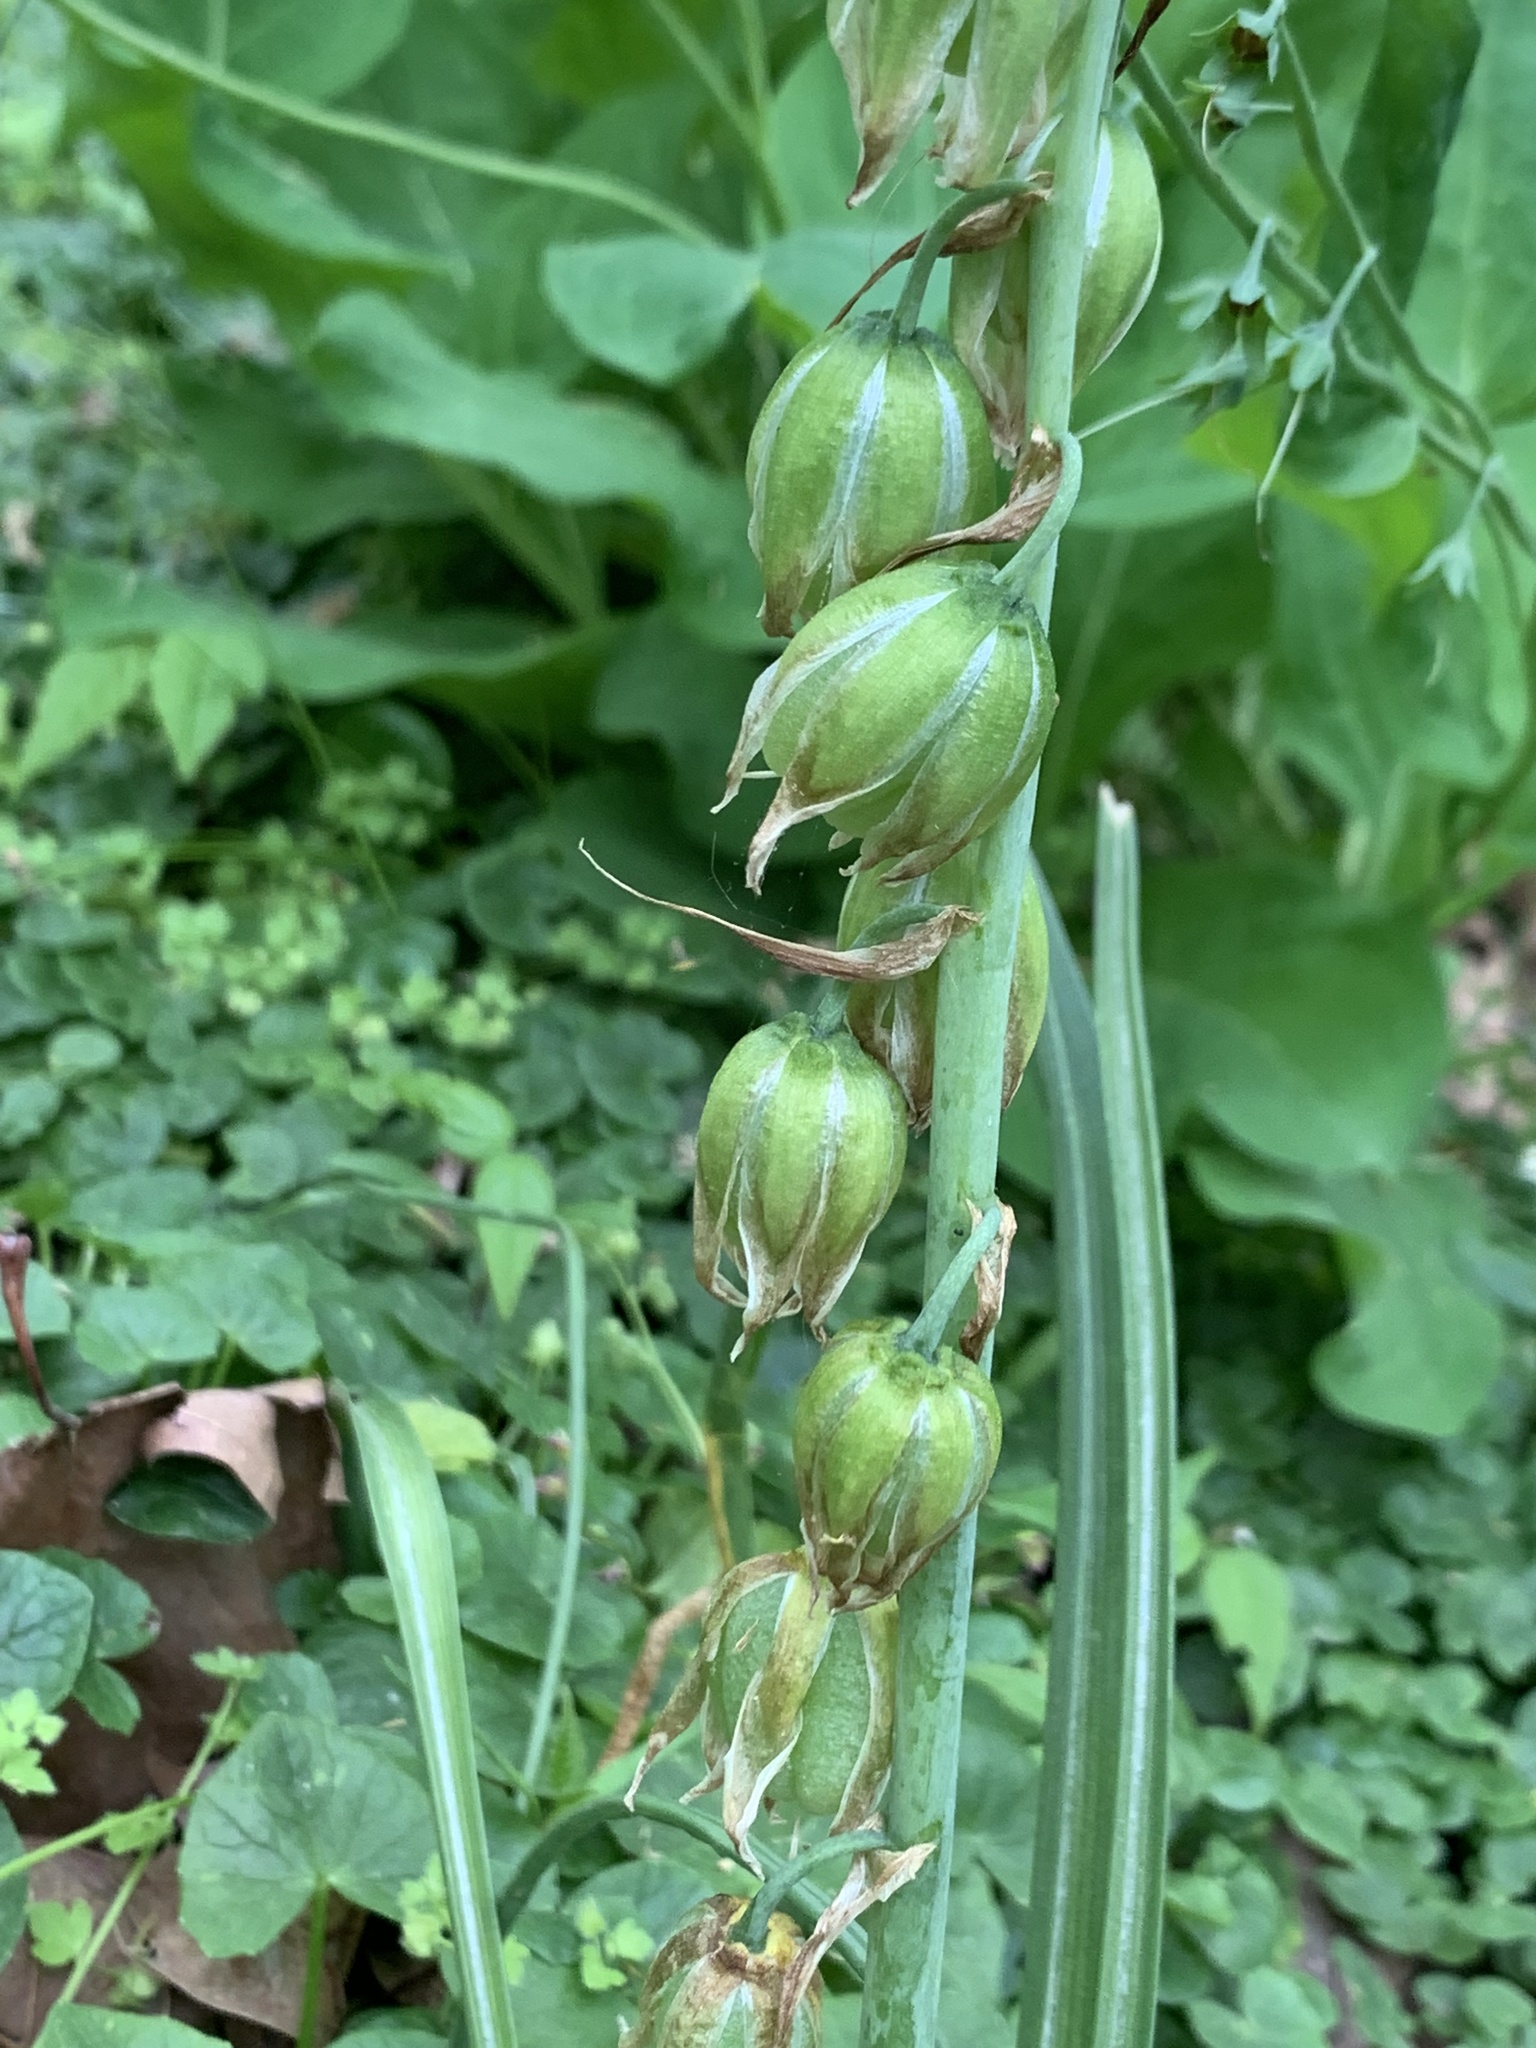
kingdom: Plantae
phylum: Tracheophyta
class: Liliopsida
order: Asparagales
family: Asparagaceae
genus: Ornithogalum
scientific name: Ornithogalum nutans
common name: Drooping star-of-bethlehem
